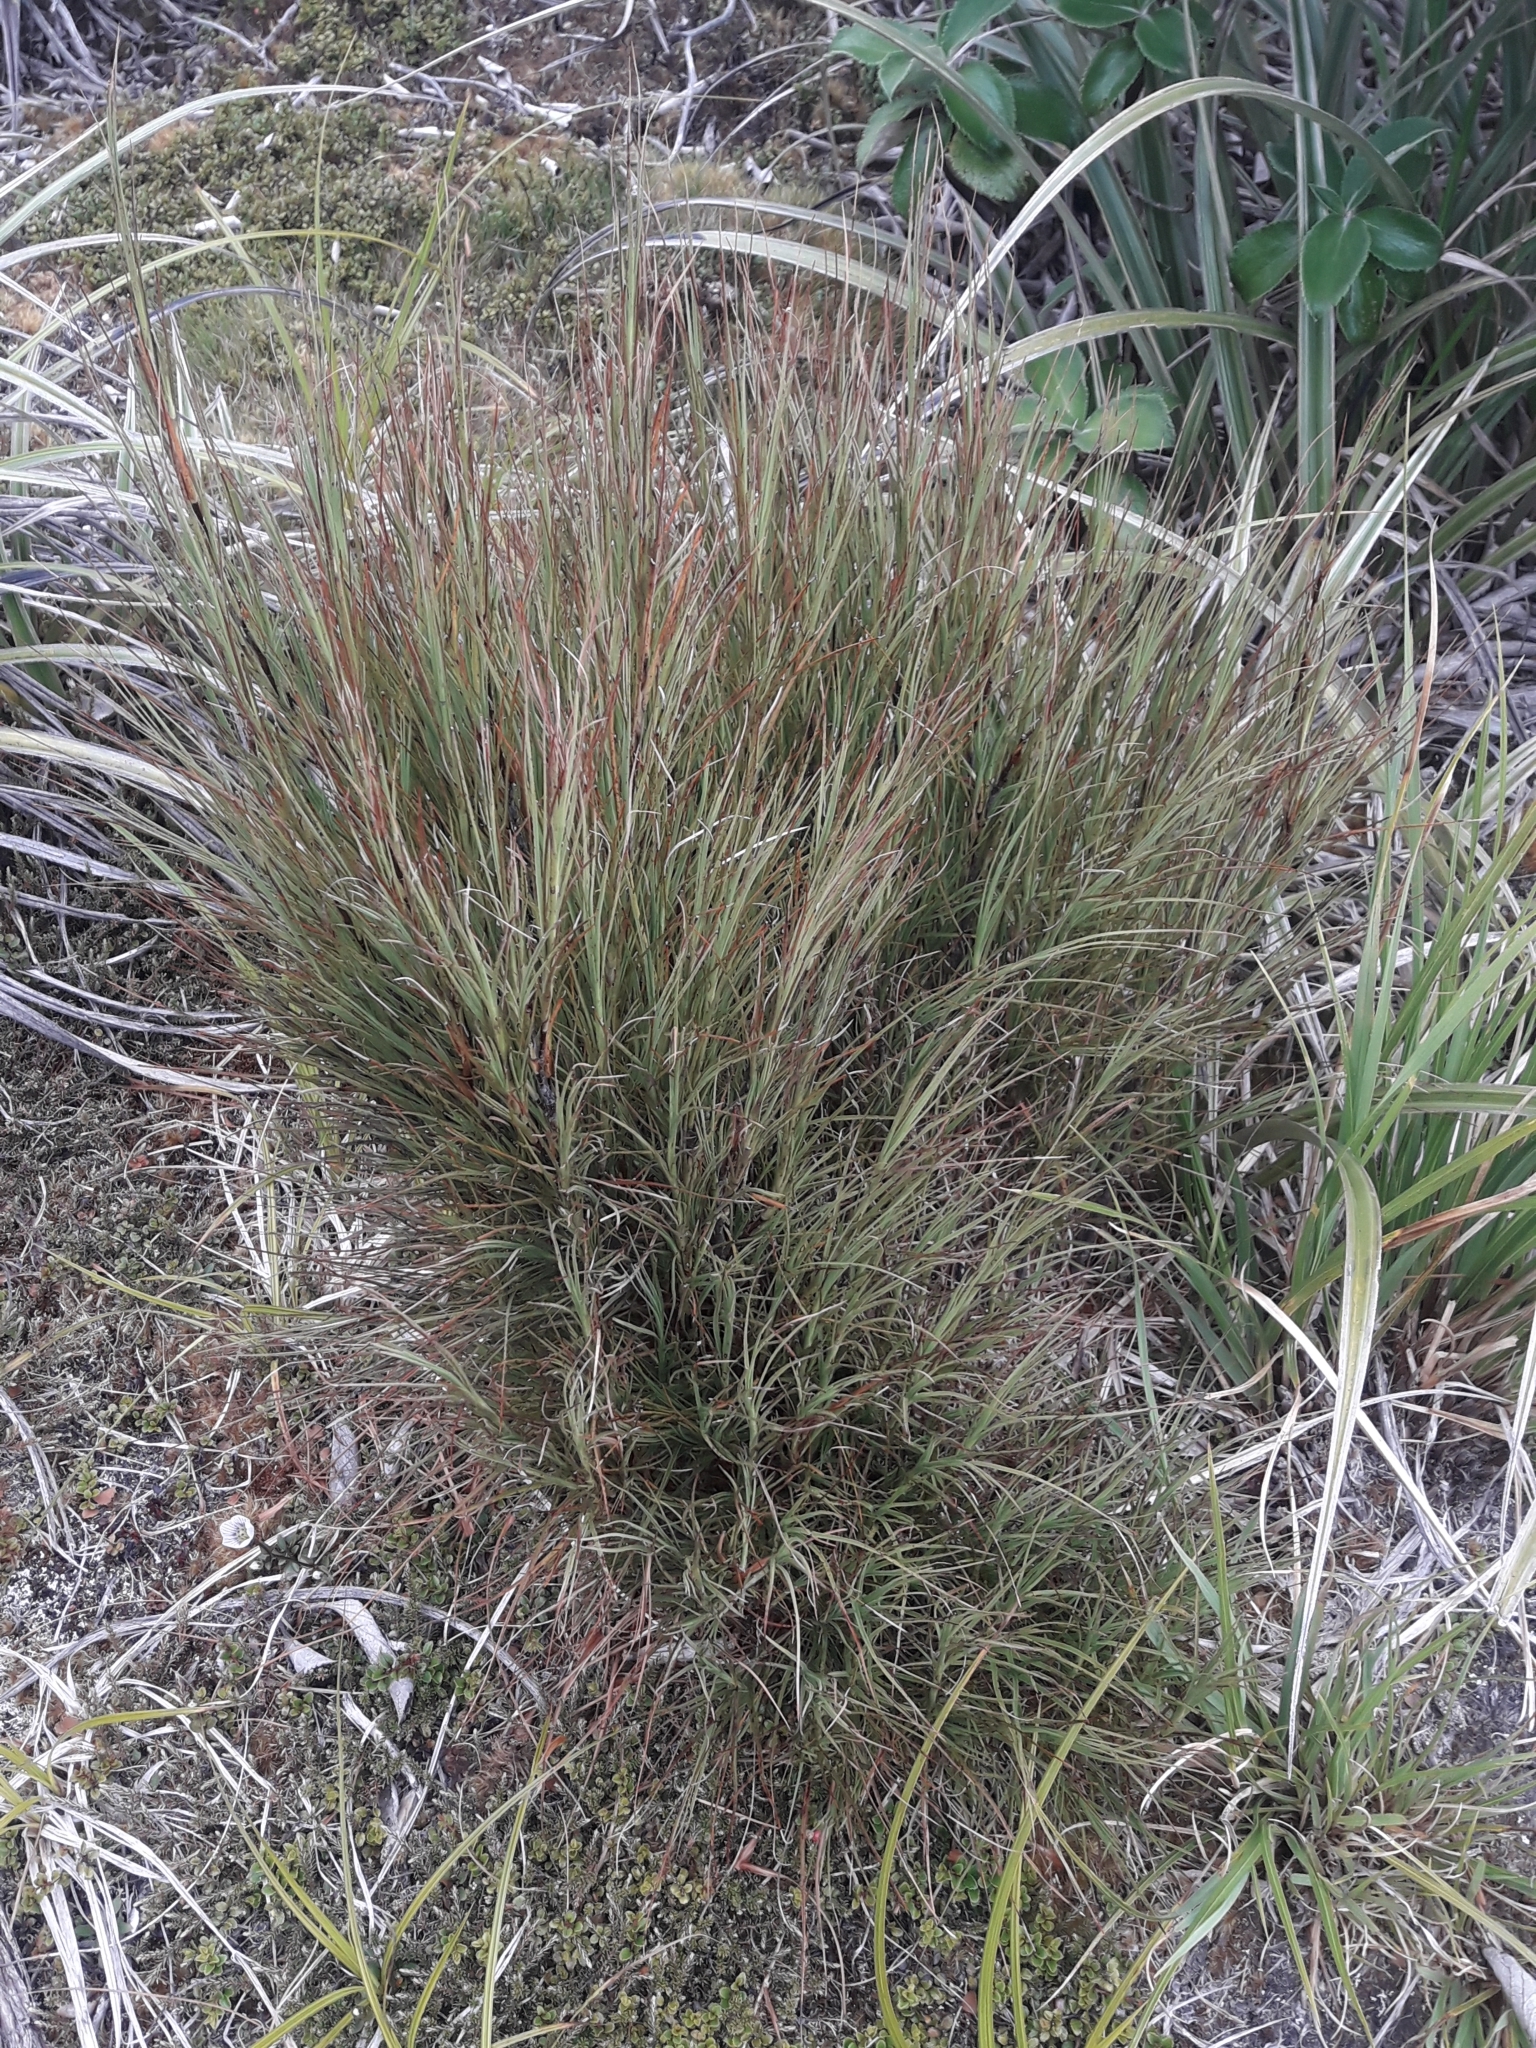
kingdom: Plantae
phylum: Tracheophyta
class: Magnoliopsida
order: Ericales
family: Ericaceae
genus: Dracophyllum
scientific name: Dracophyllum filifolium
